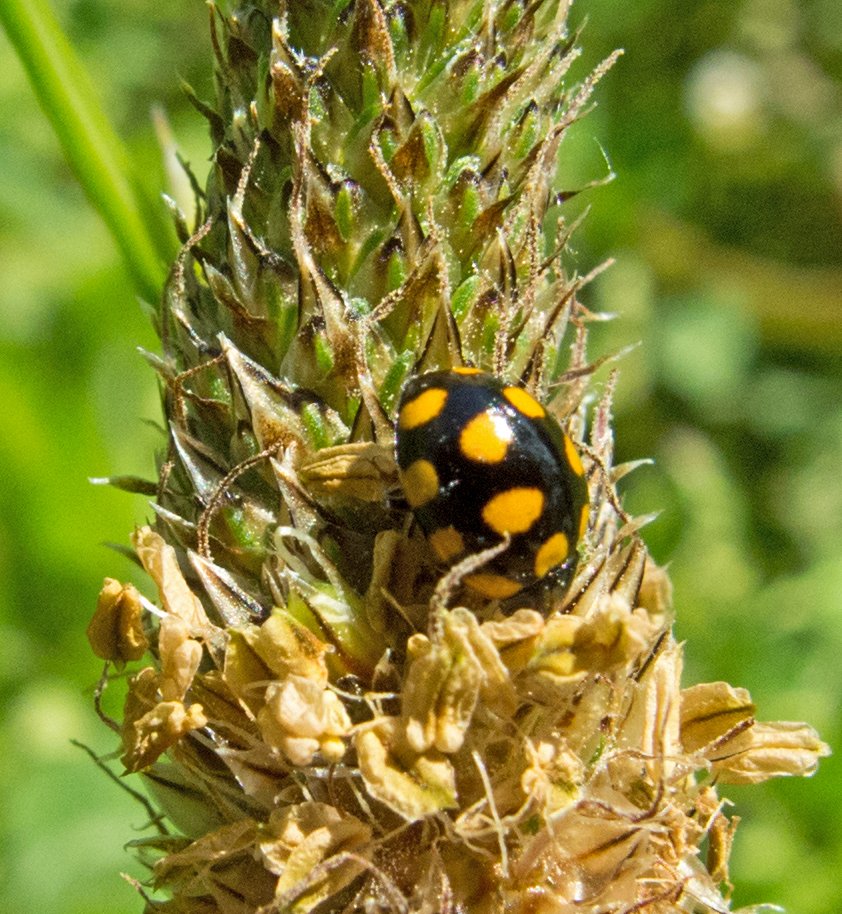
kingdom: Animalia
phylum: Arthropoda
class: Insecta
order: Coleoptera
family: Coccinellidae
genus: Coccinula
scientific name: Coccinula quatuordecimpustulata
